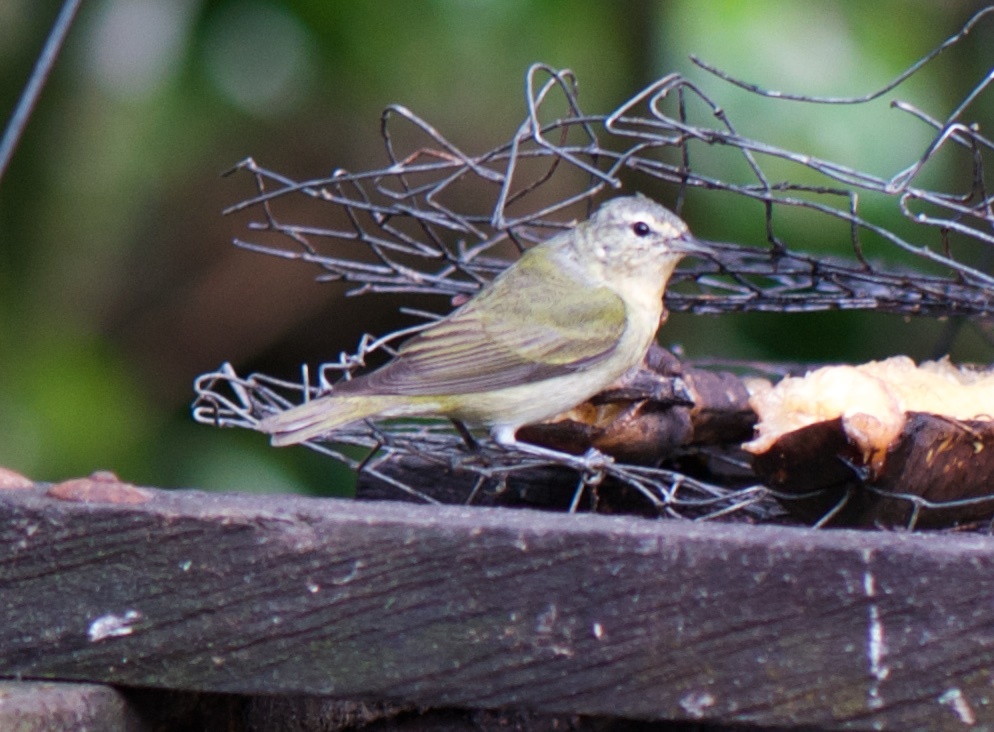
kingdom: Animalia
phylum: Chordata
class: Aves
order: Passeriformes
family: Parulidae
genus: Leiothlypis
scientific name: Leiothlypis peregrina
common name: Tennessee warbler
